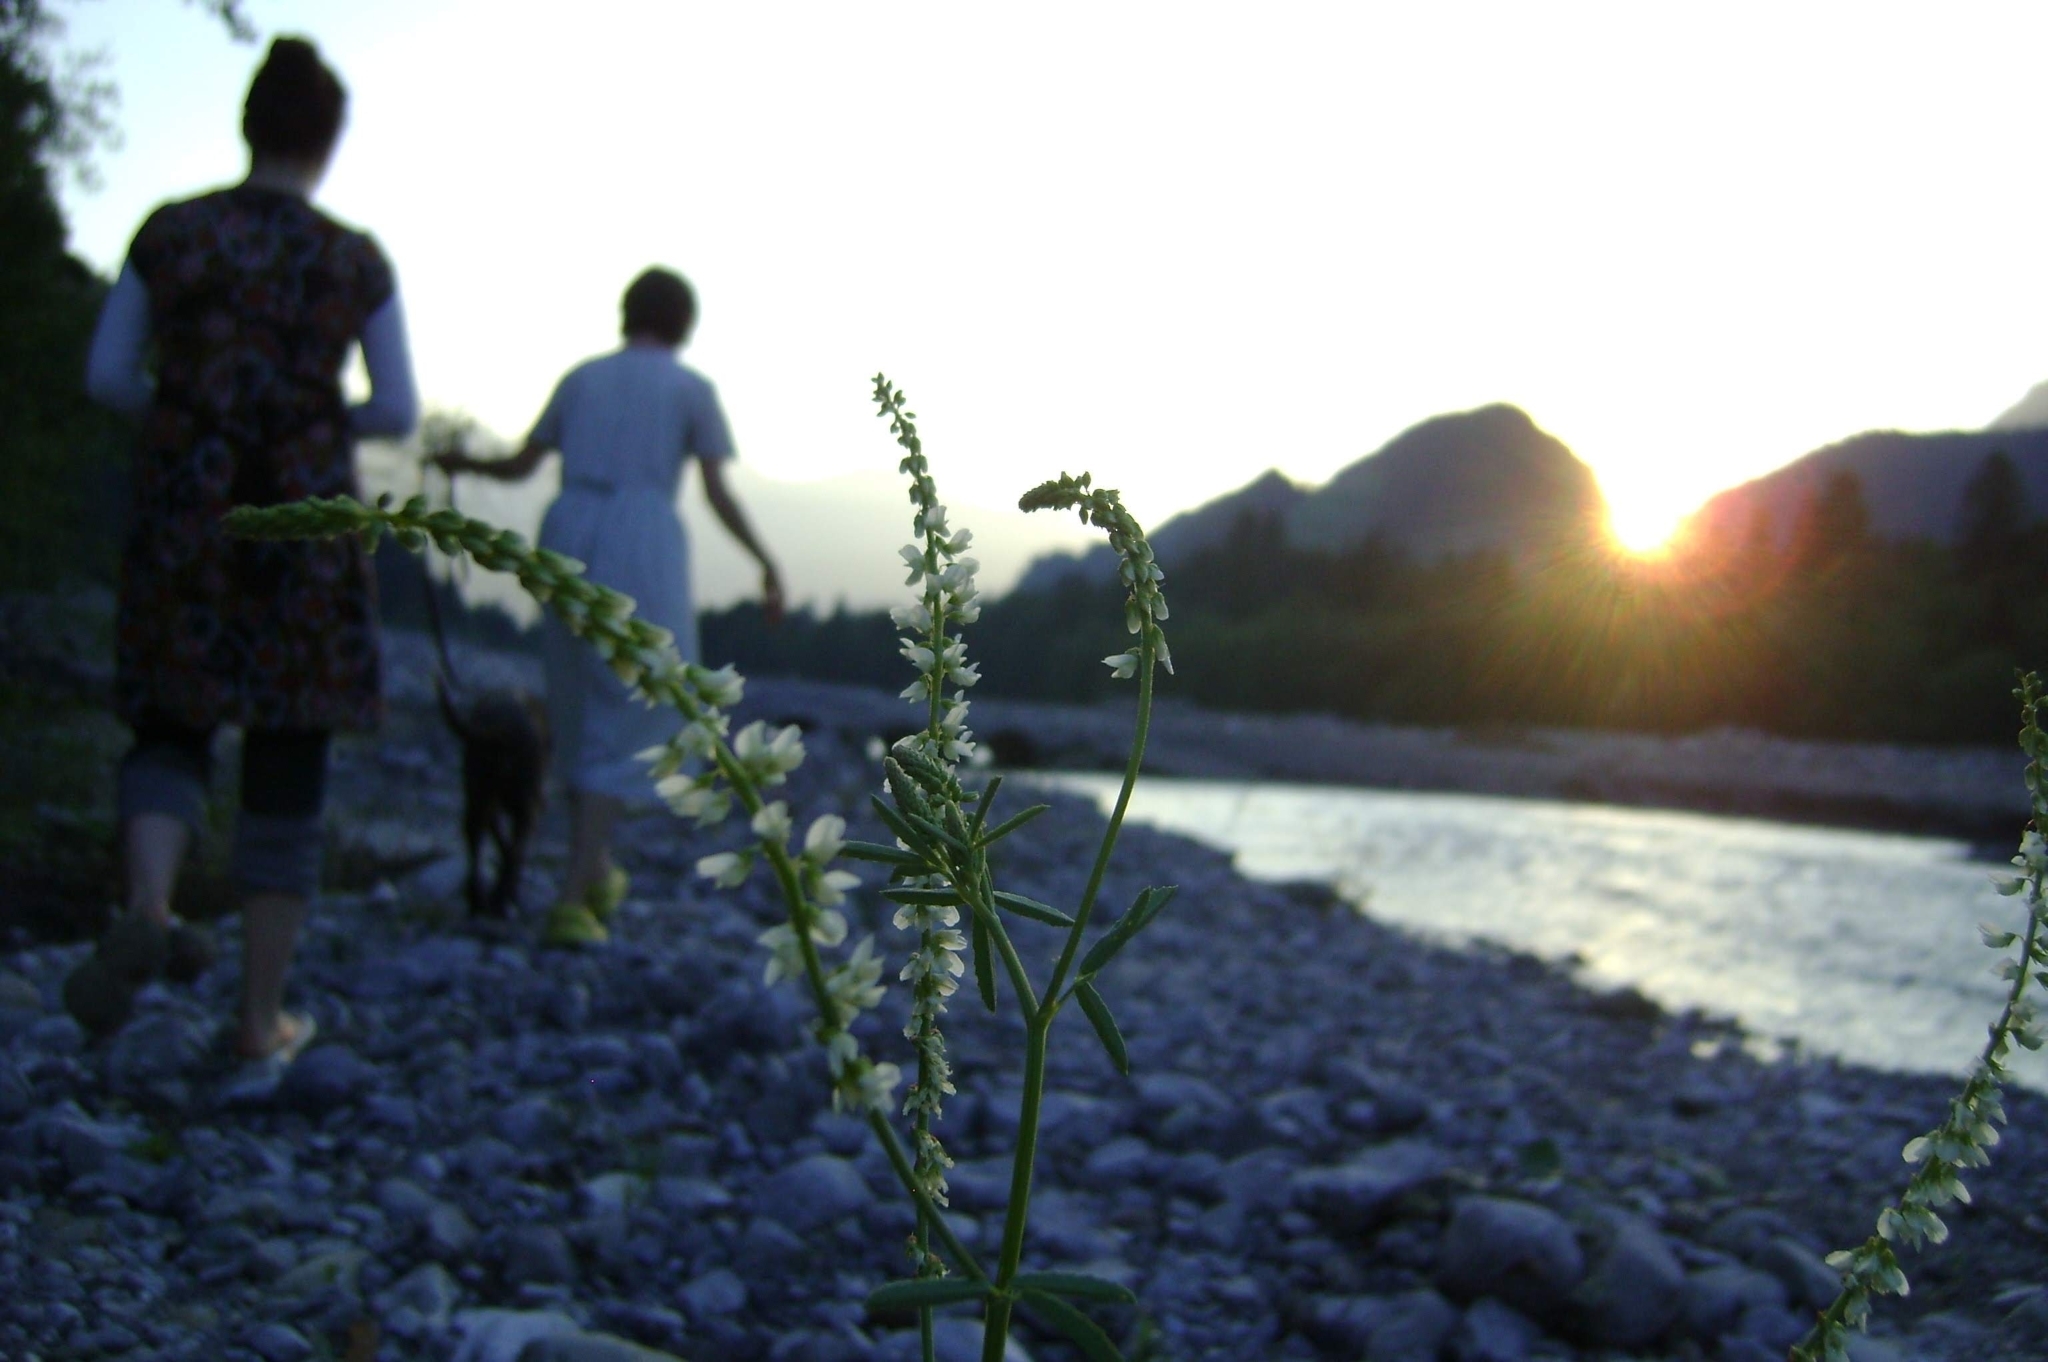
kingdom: Plantae
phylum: Tracheophyta
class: Magnoliopsida
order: Fabales
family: Fabaceae
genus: Melilotus
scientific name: Melilotus albus
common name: White melilot
